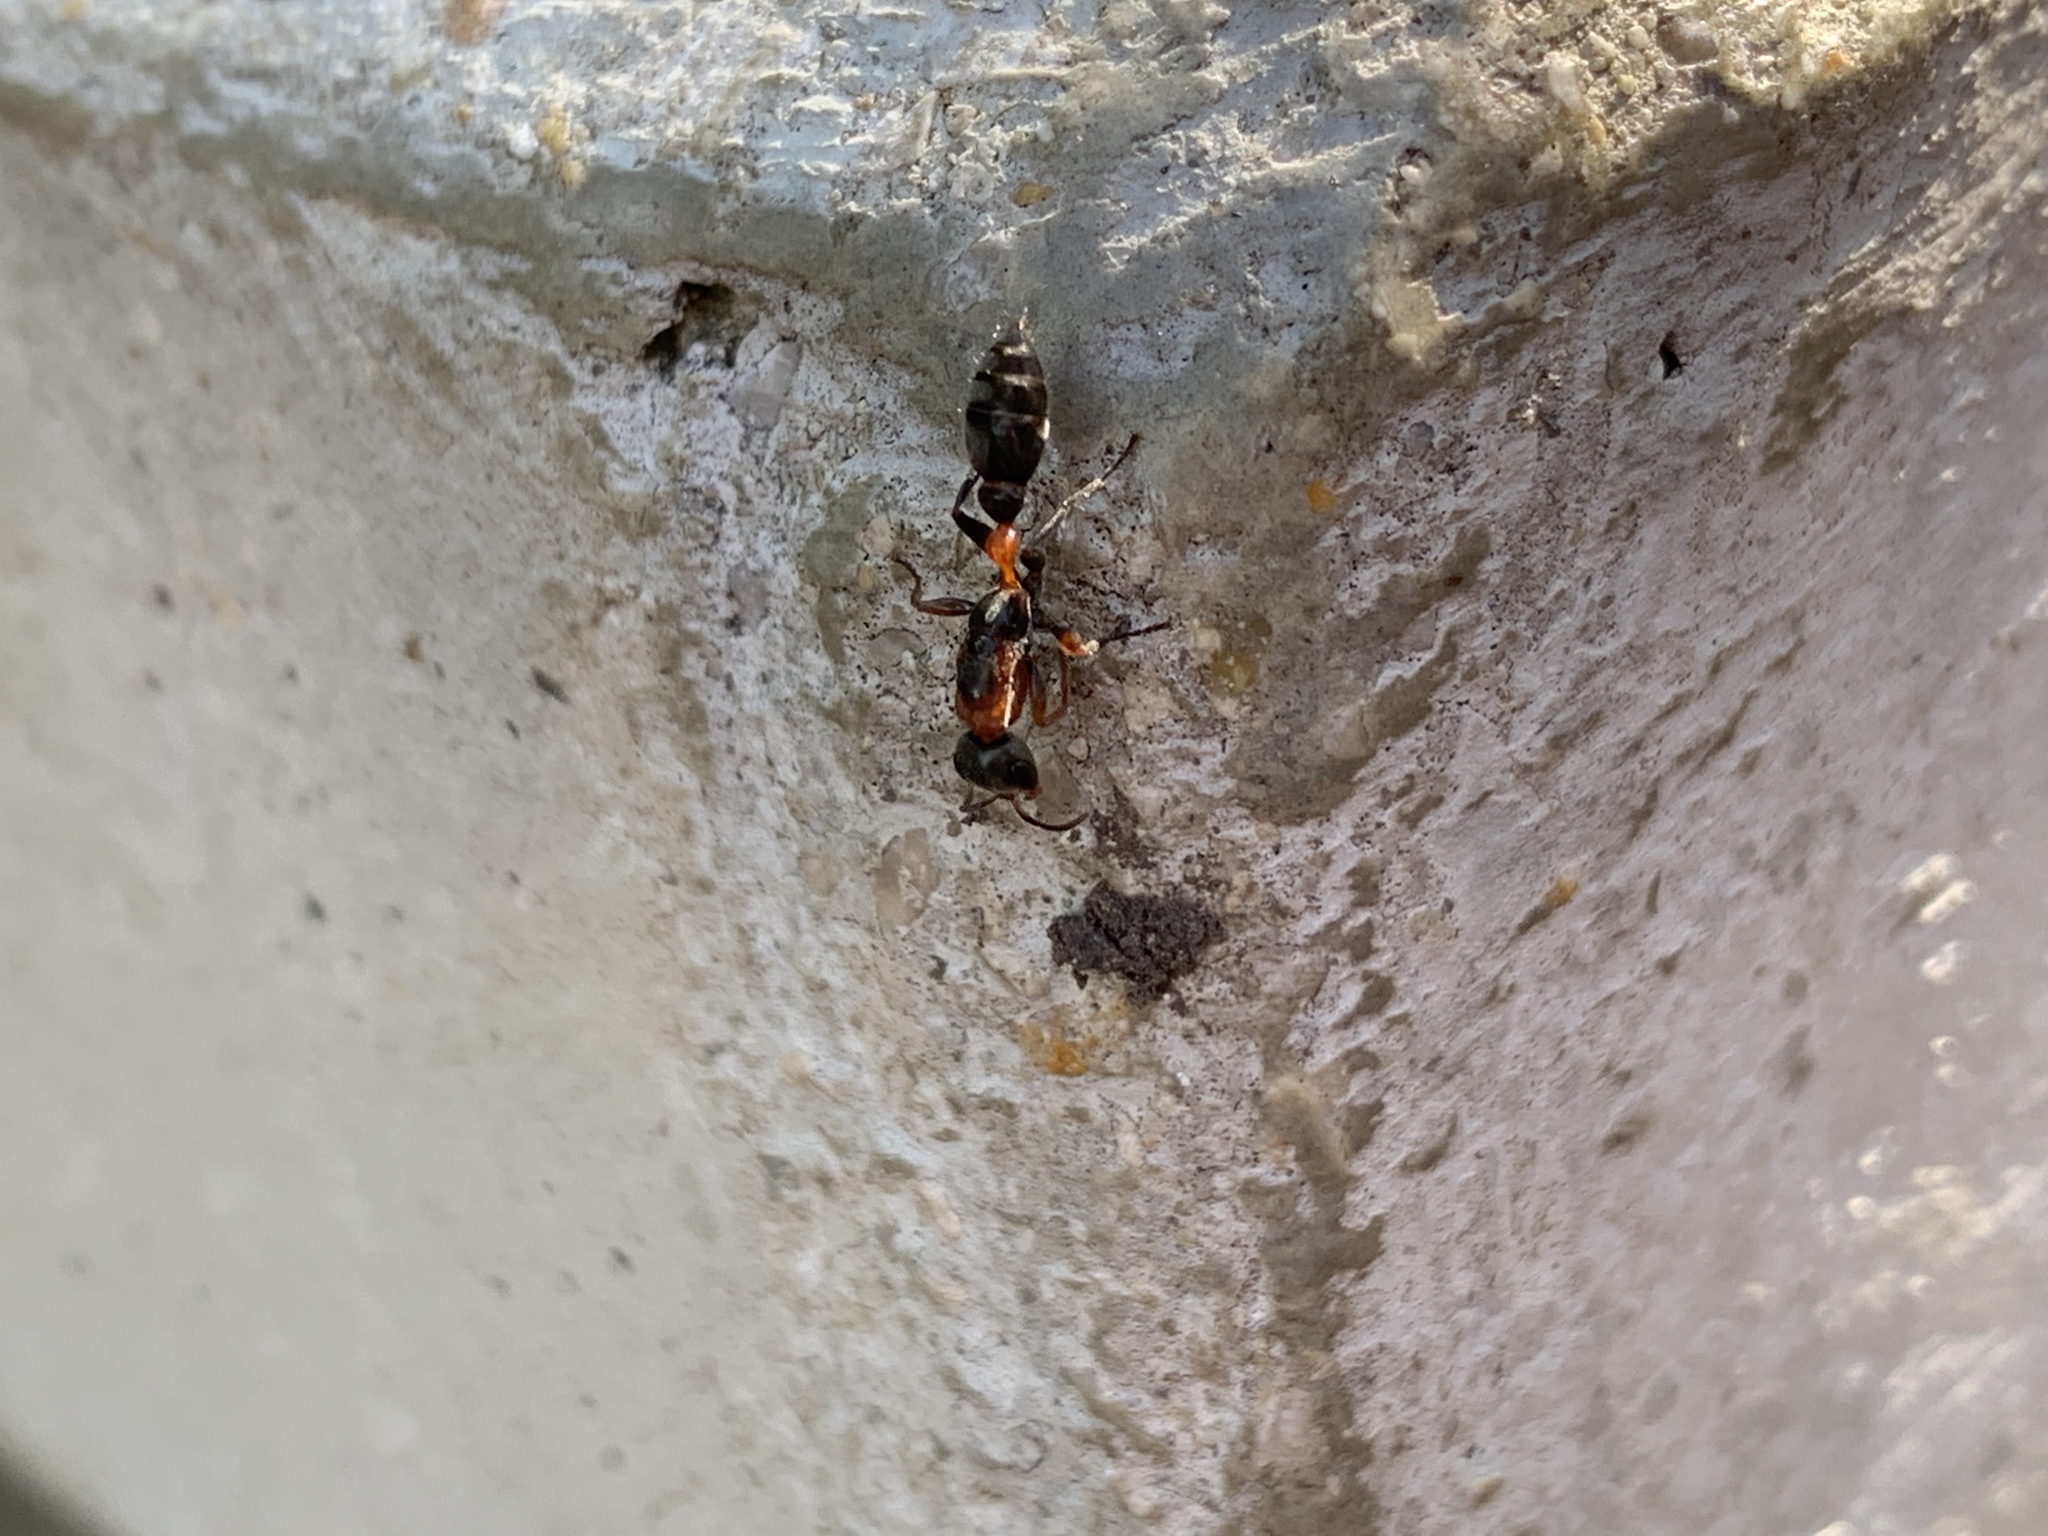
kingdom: Animalia
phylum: Arthropoda
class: Insecta
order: Hymenoptera
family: Formicidae
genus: Pseudomyrmex
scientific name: Pseudomyrmex gracilis
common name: Graceful twig ant
